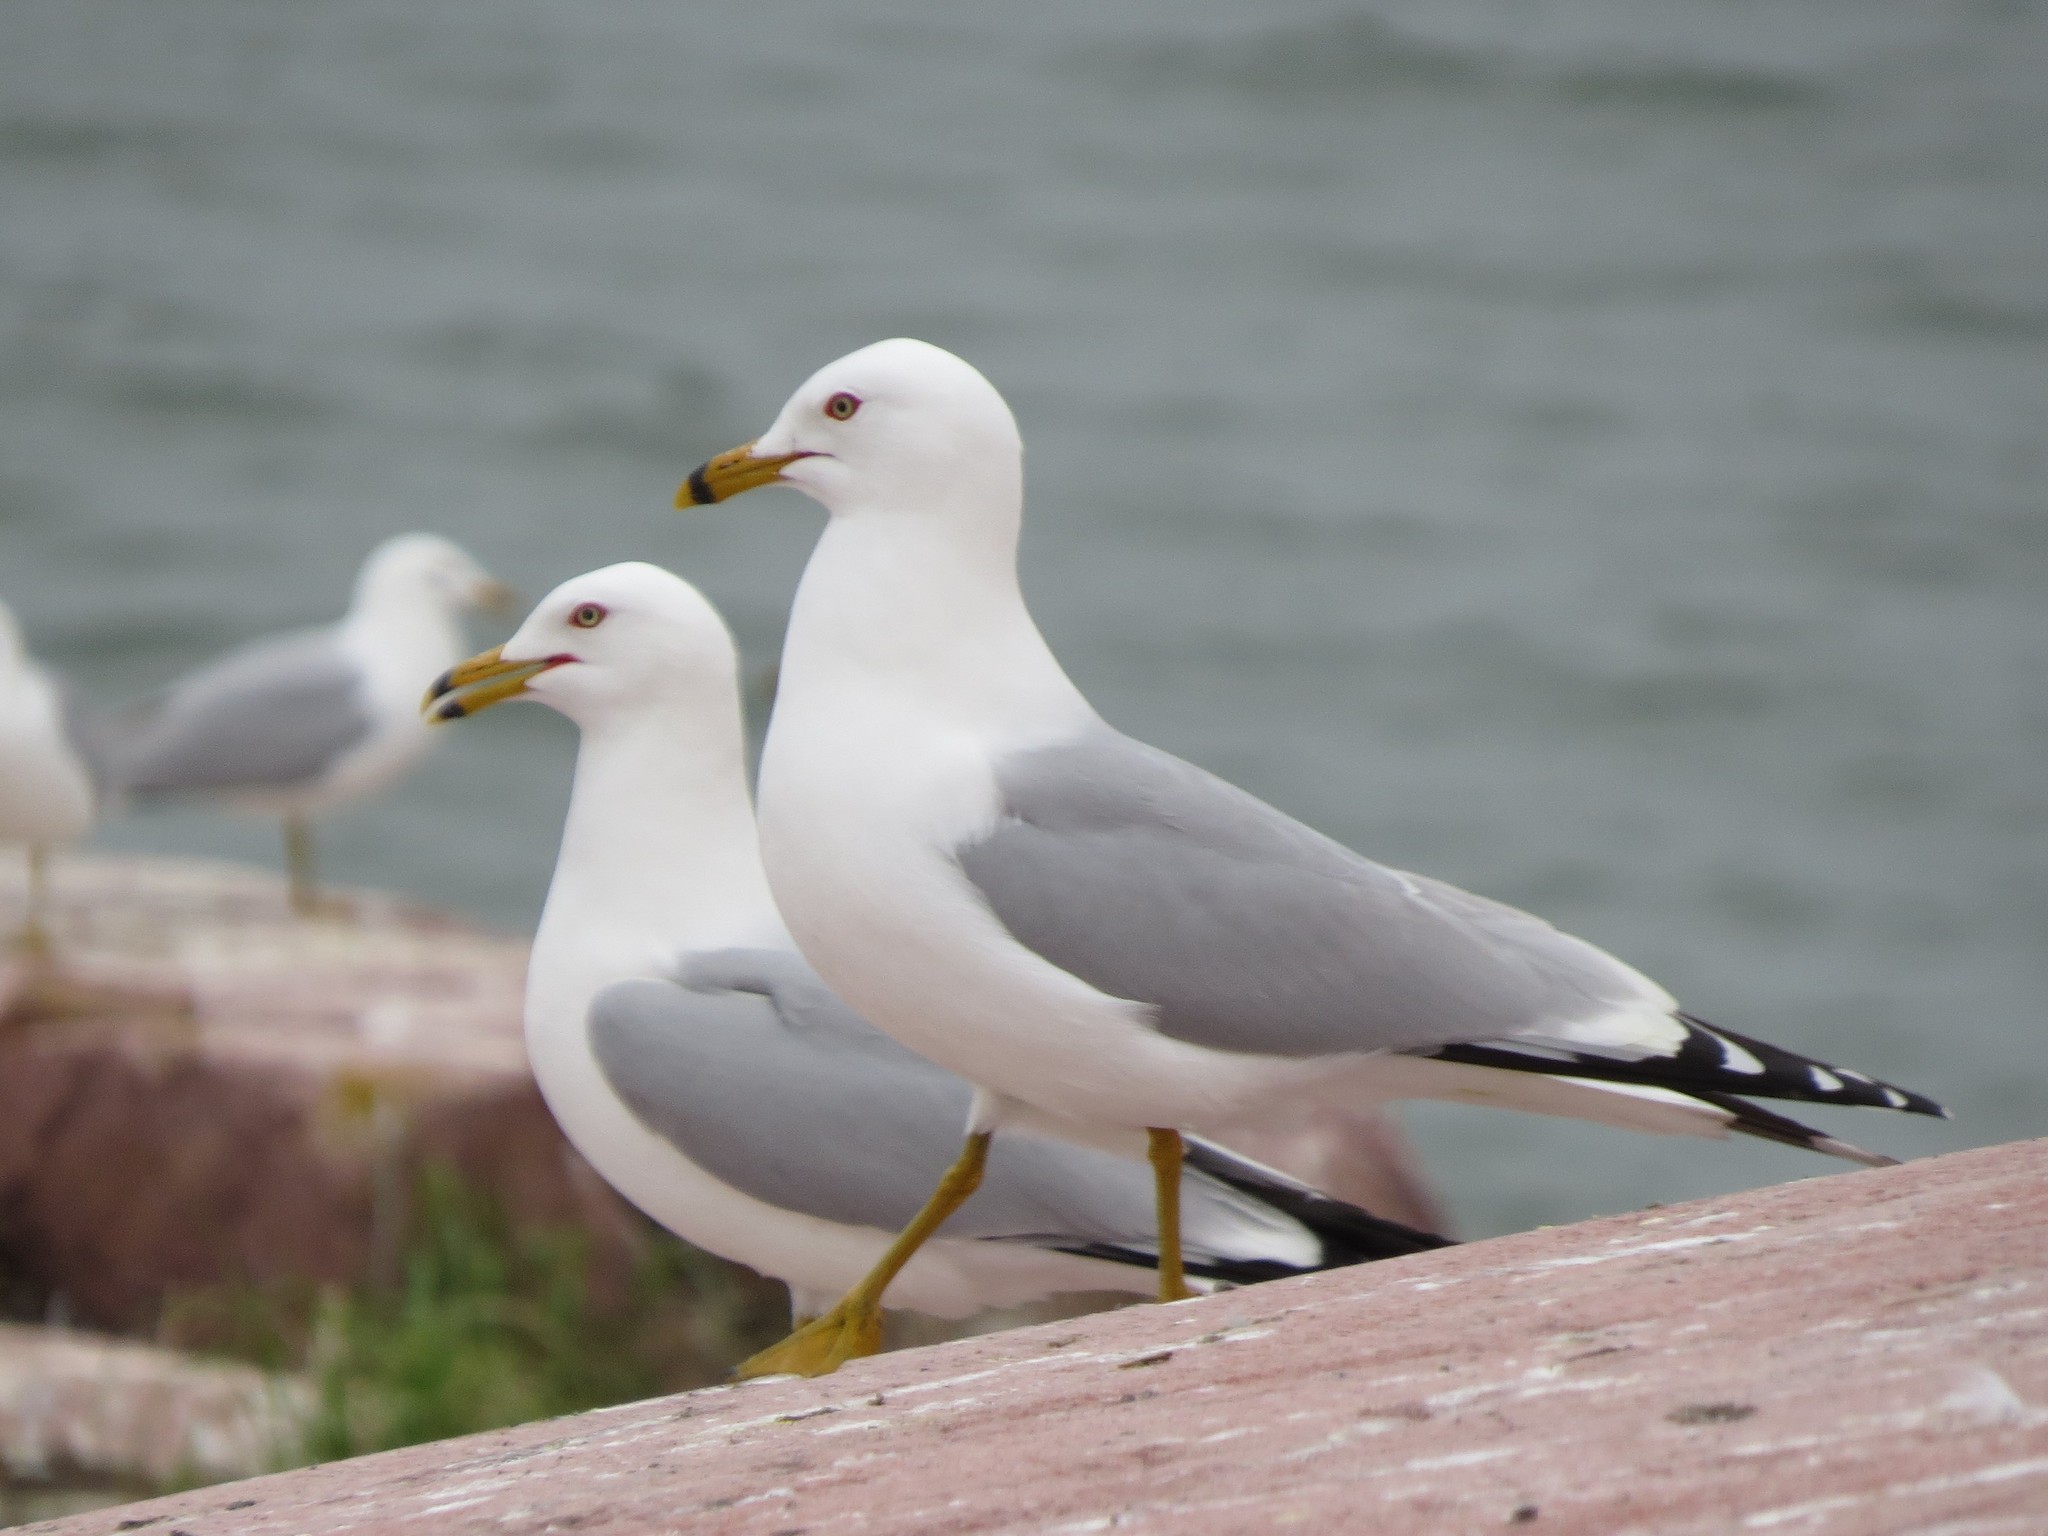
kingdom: Animalia
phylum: Chordata
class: Aves
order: Charadriiformes
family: Laridae
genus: Larus
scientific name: Larus delawarensis
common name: Ring-billed gull
